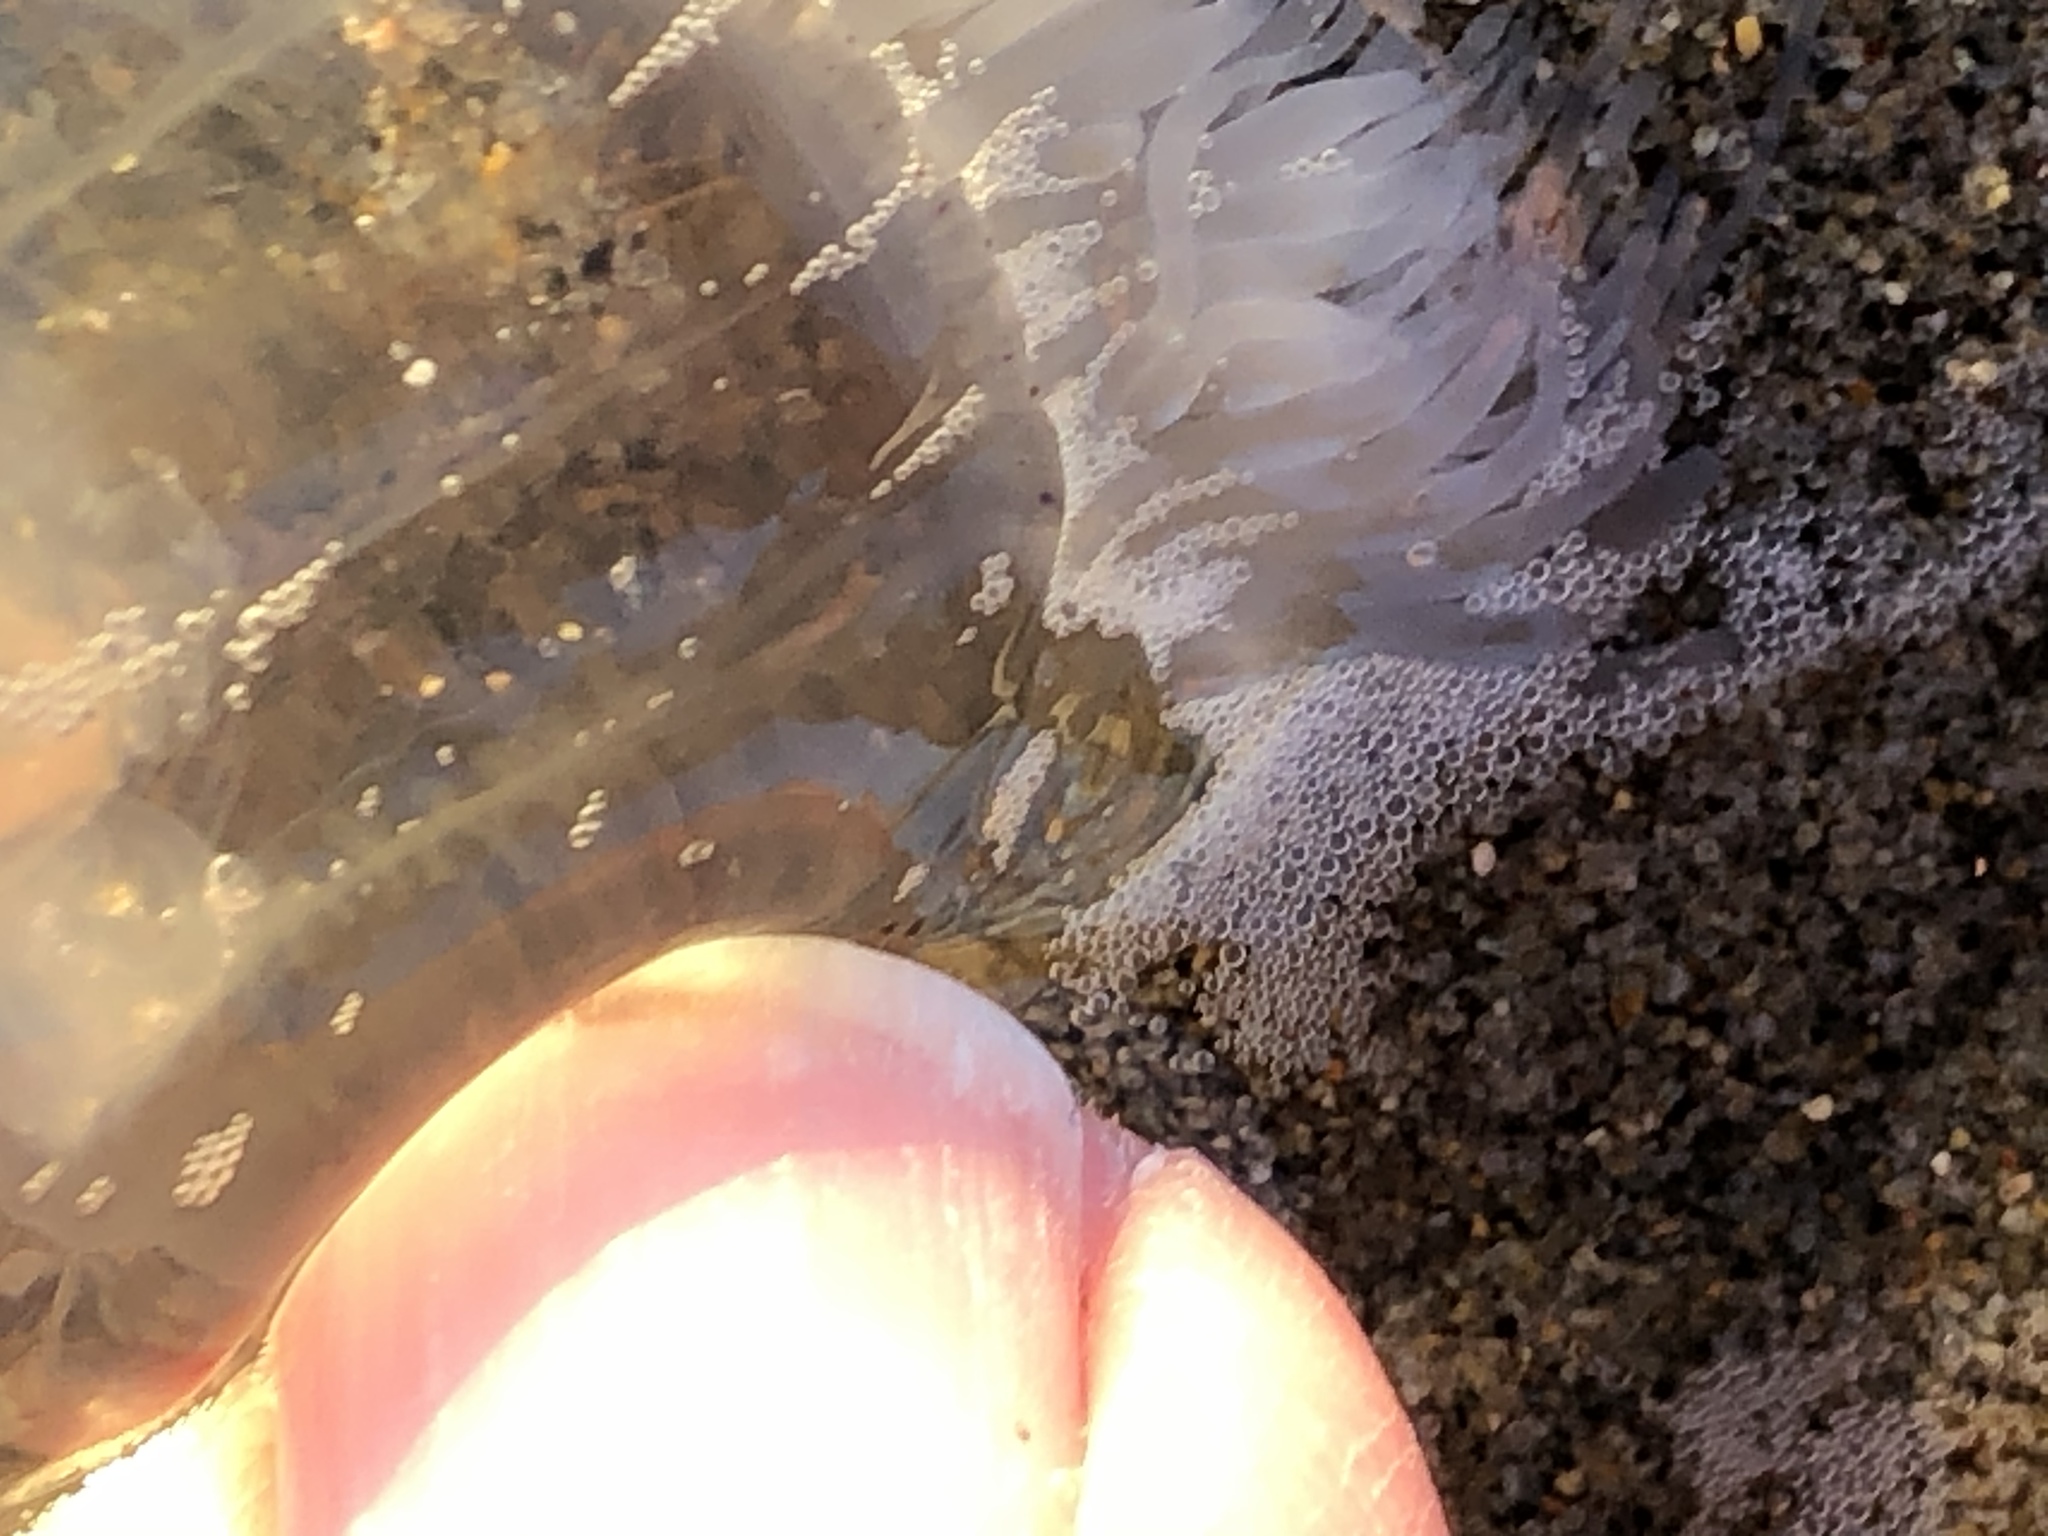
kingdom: Animalia
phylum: Cnidaria
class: Hydrozoa
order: Anthoathecata
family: Corynidae
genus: Polyorchis
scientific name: Polyorchis penicillatus
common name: Penicillate jellyfish
